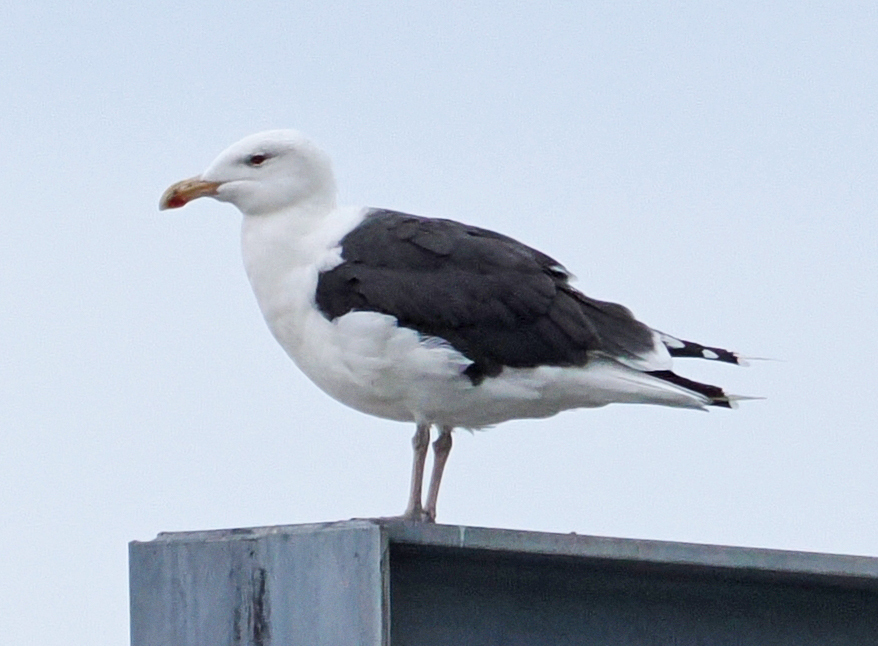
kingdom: Animalia
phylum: Chordata
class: Aves
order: Charadriiformes
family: Laridae
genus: Larus
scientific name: Larus marinus
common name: Great black-backed gull
